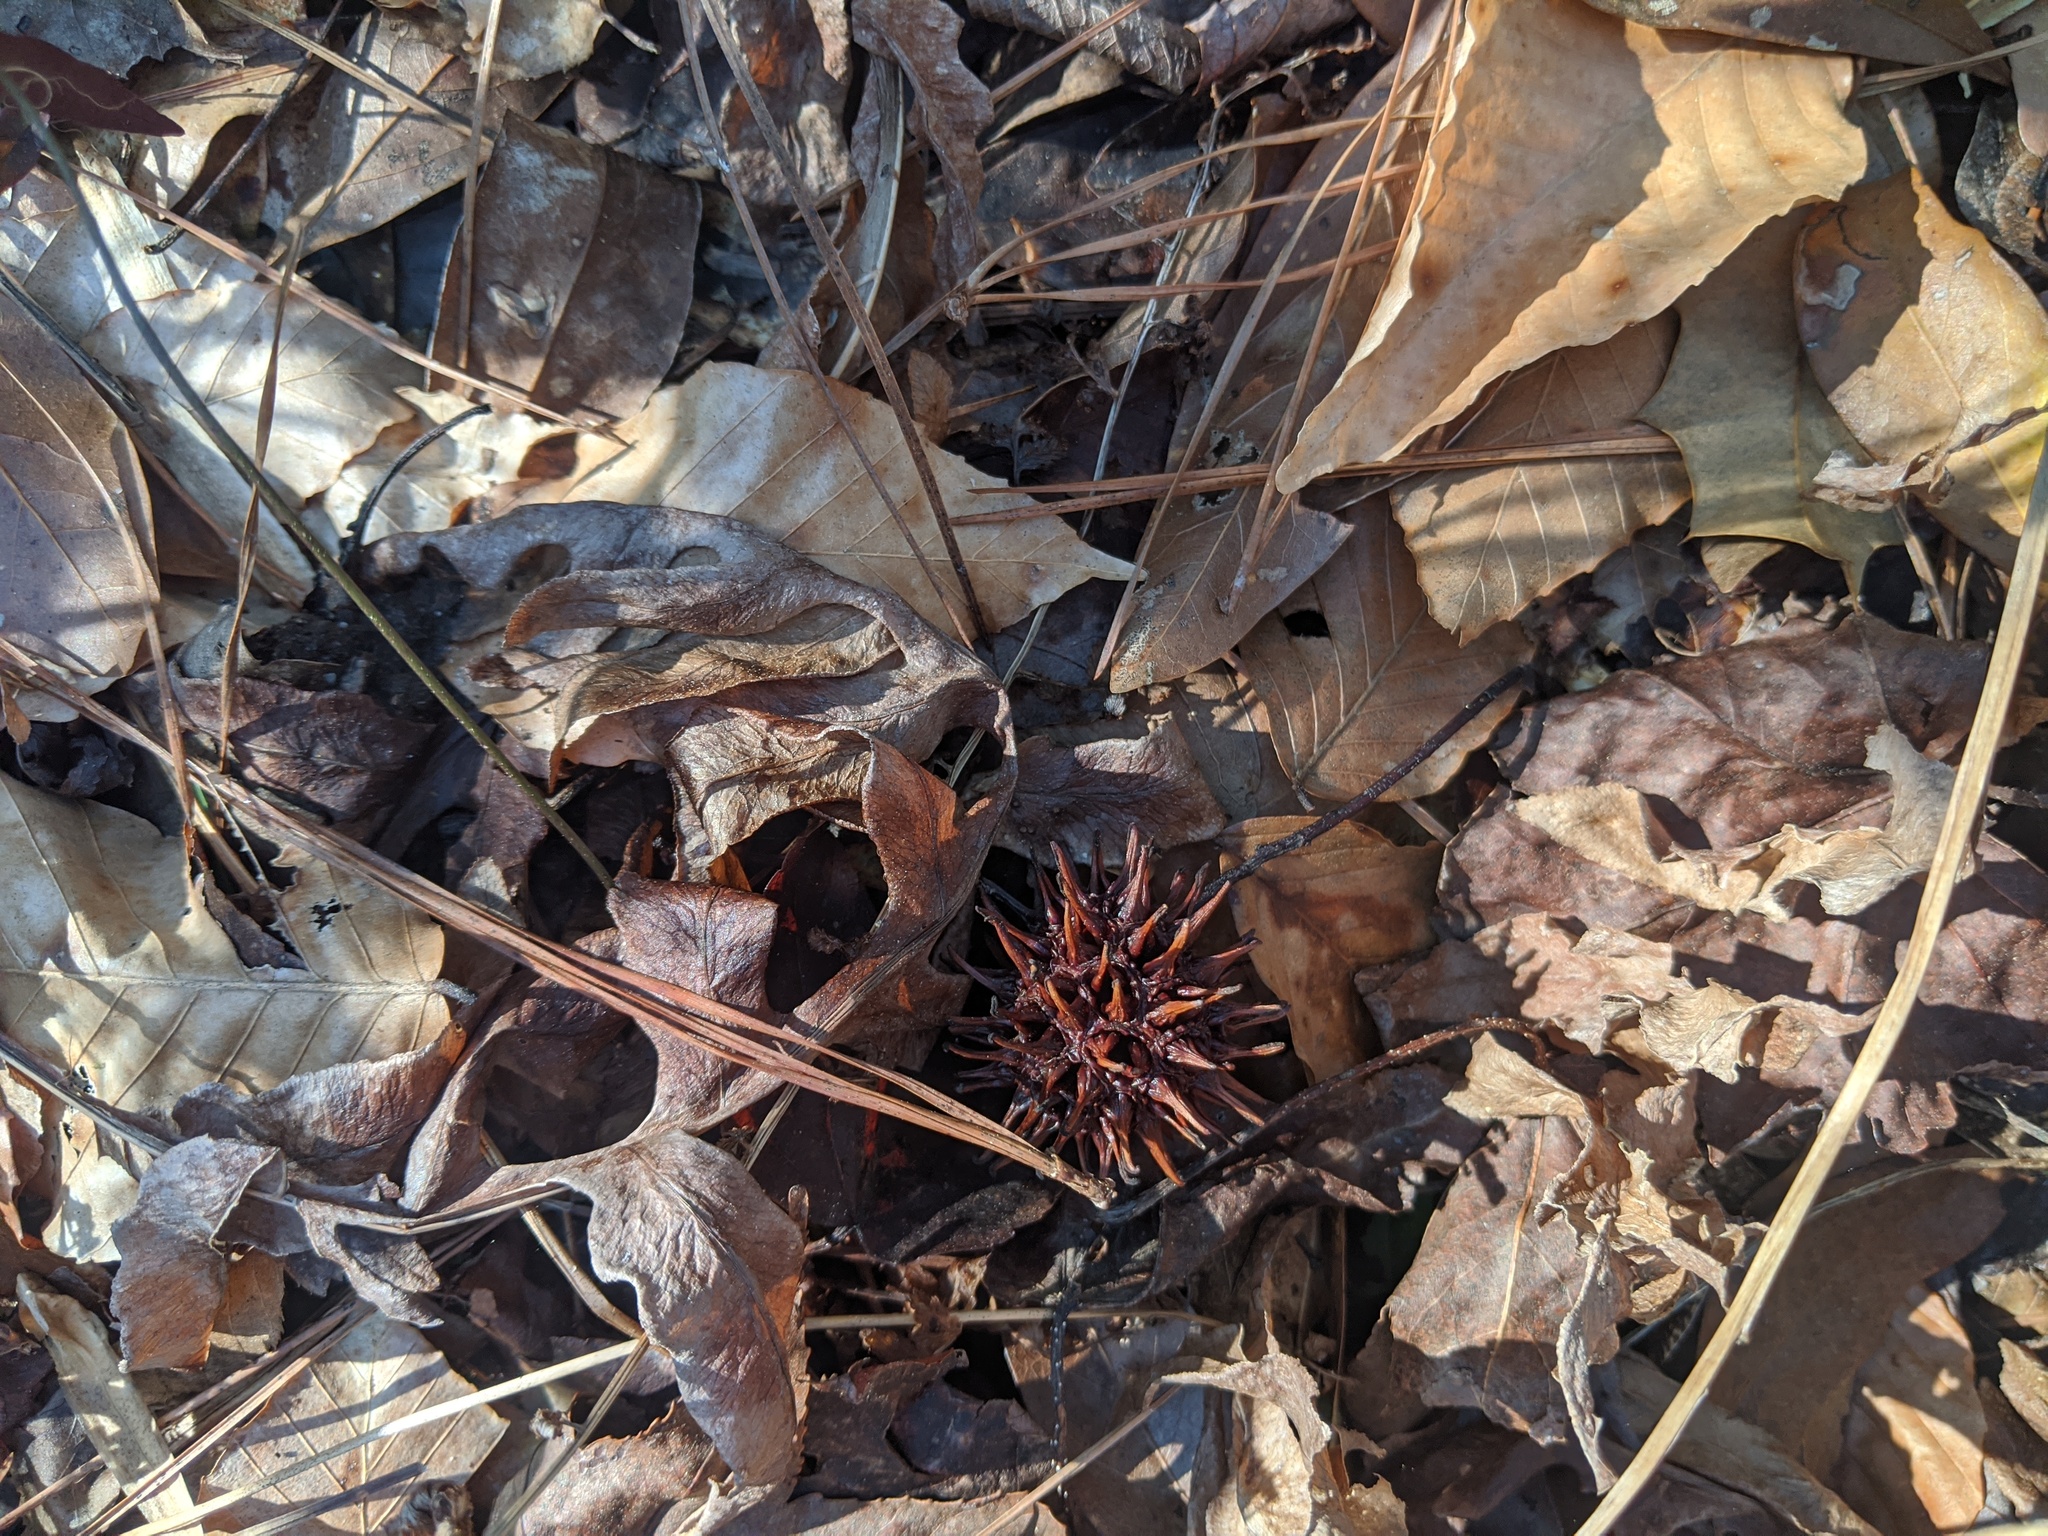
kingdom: Plantae
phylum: Tracheophyta
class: Magnoliopsida
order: Saxifragales
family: Altingiaceae
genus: Liquidambar
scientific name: Liquidambar styraciflua
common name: Sweet gum
